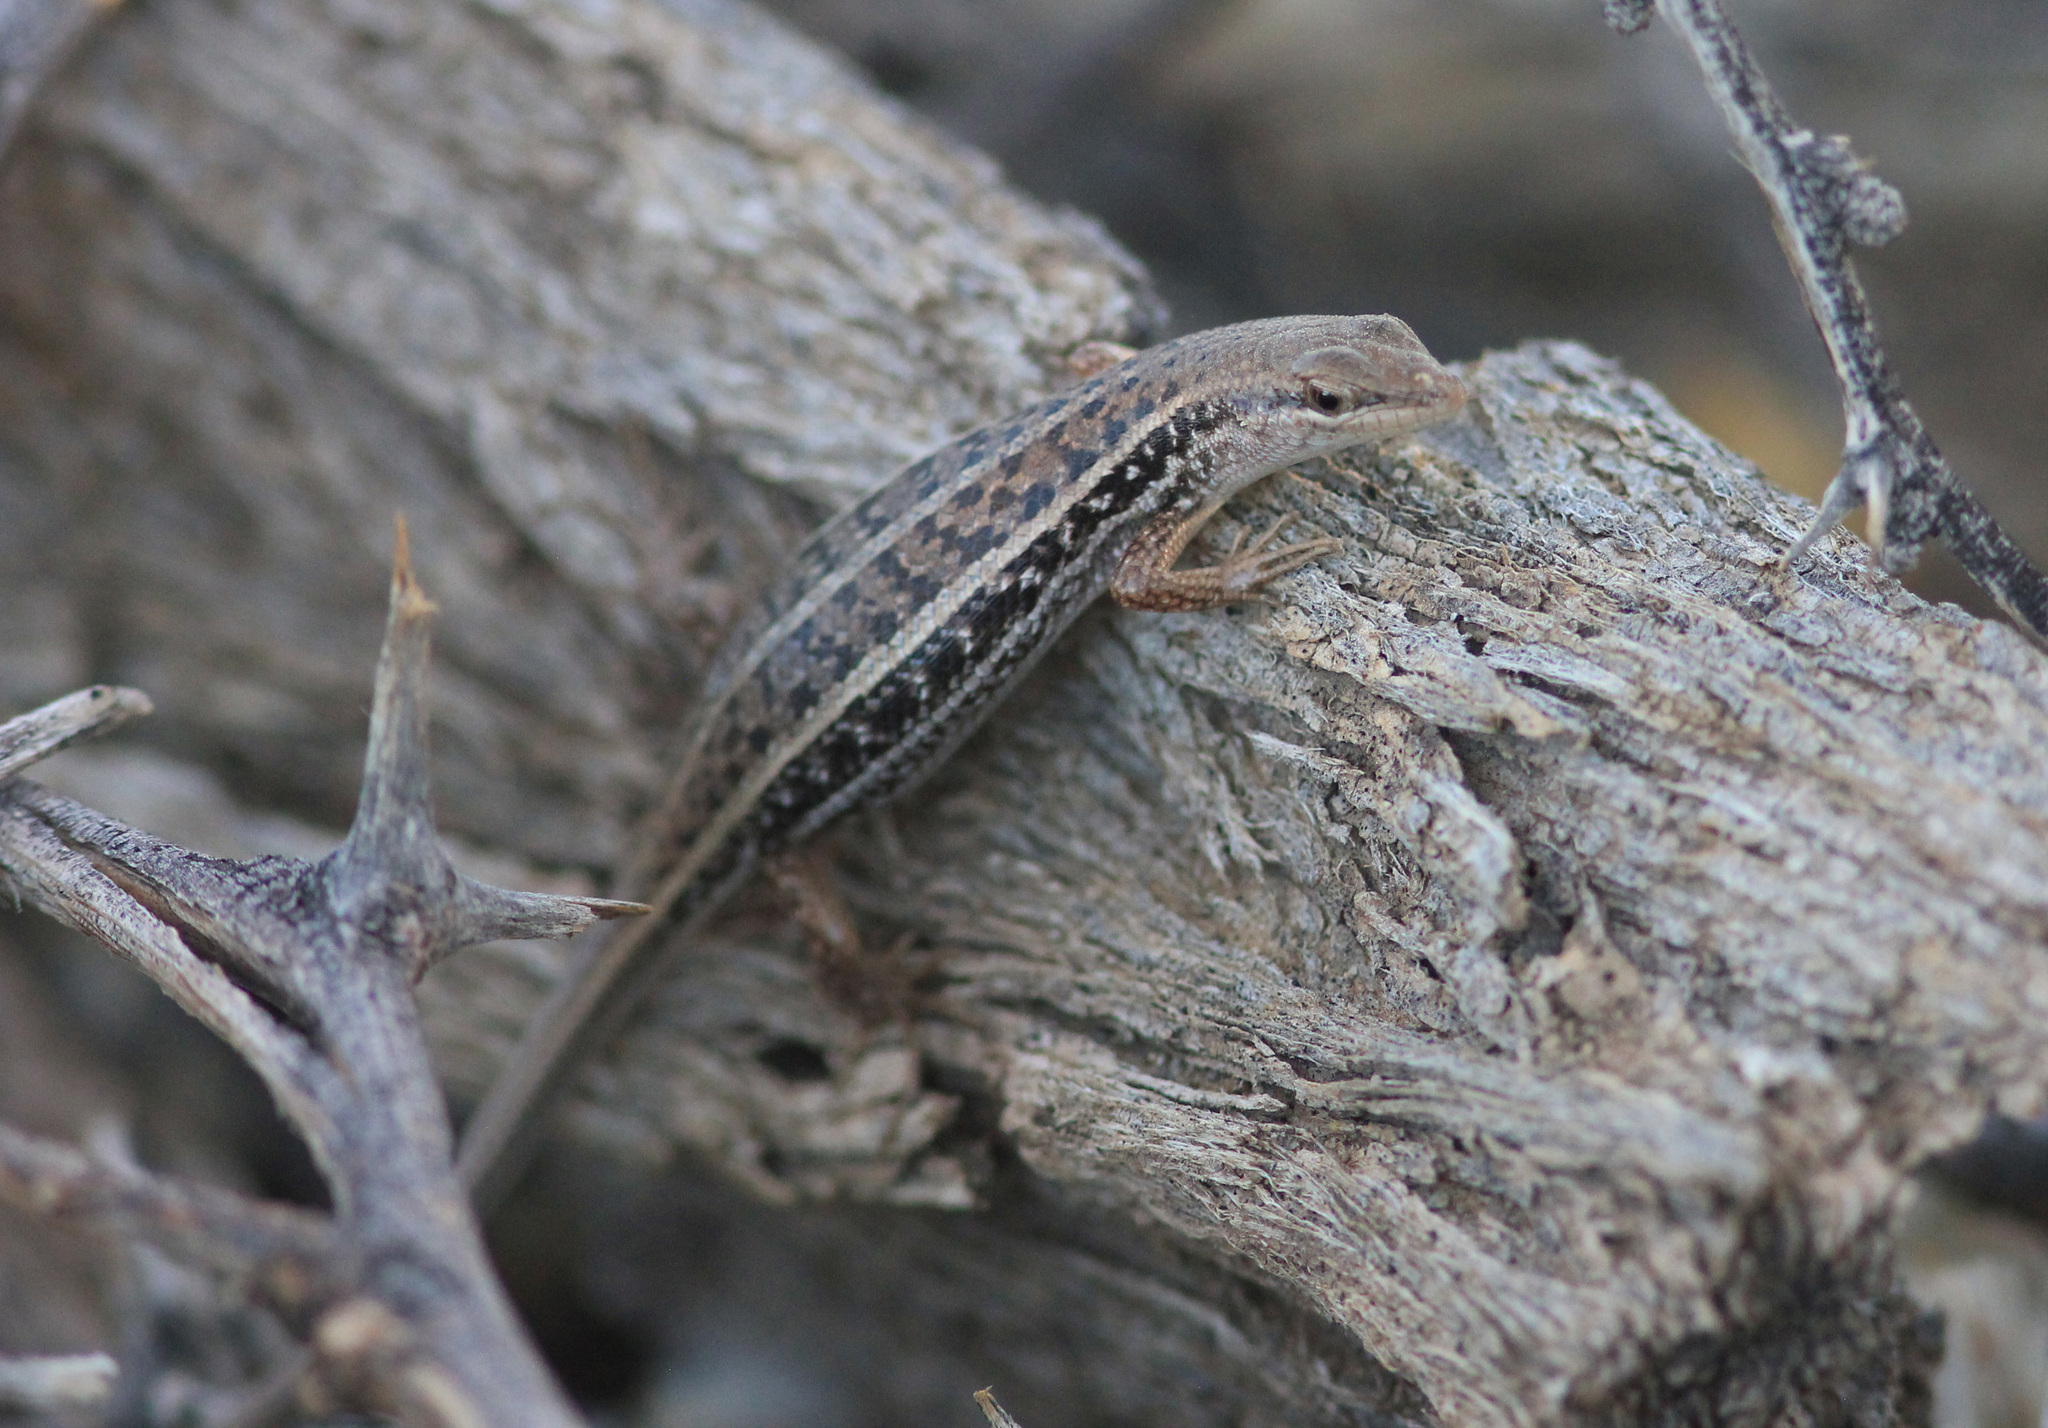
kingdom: Animalia
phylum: Chordata
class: Squamata
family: Scincidae
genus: Trachylepis
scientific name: Trachylepis variegata
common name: Variegated skink
